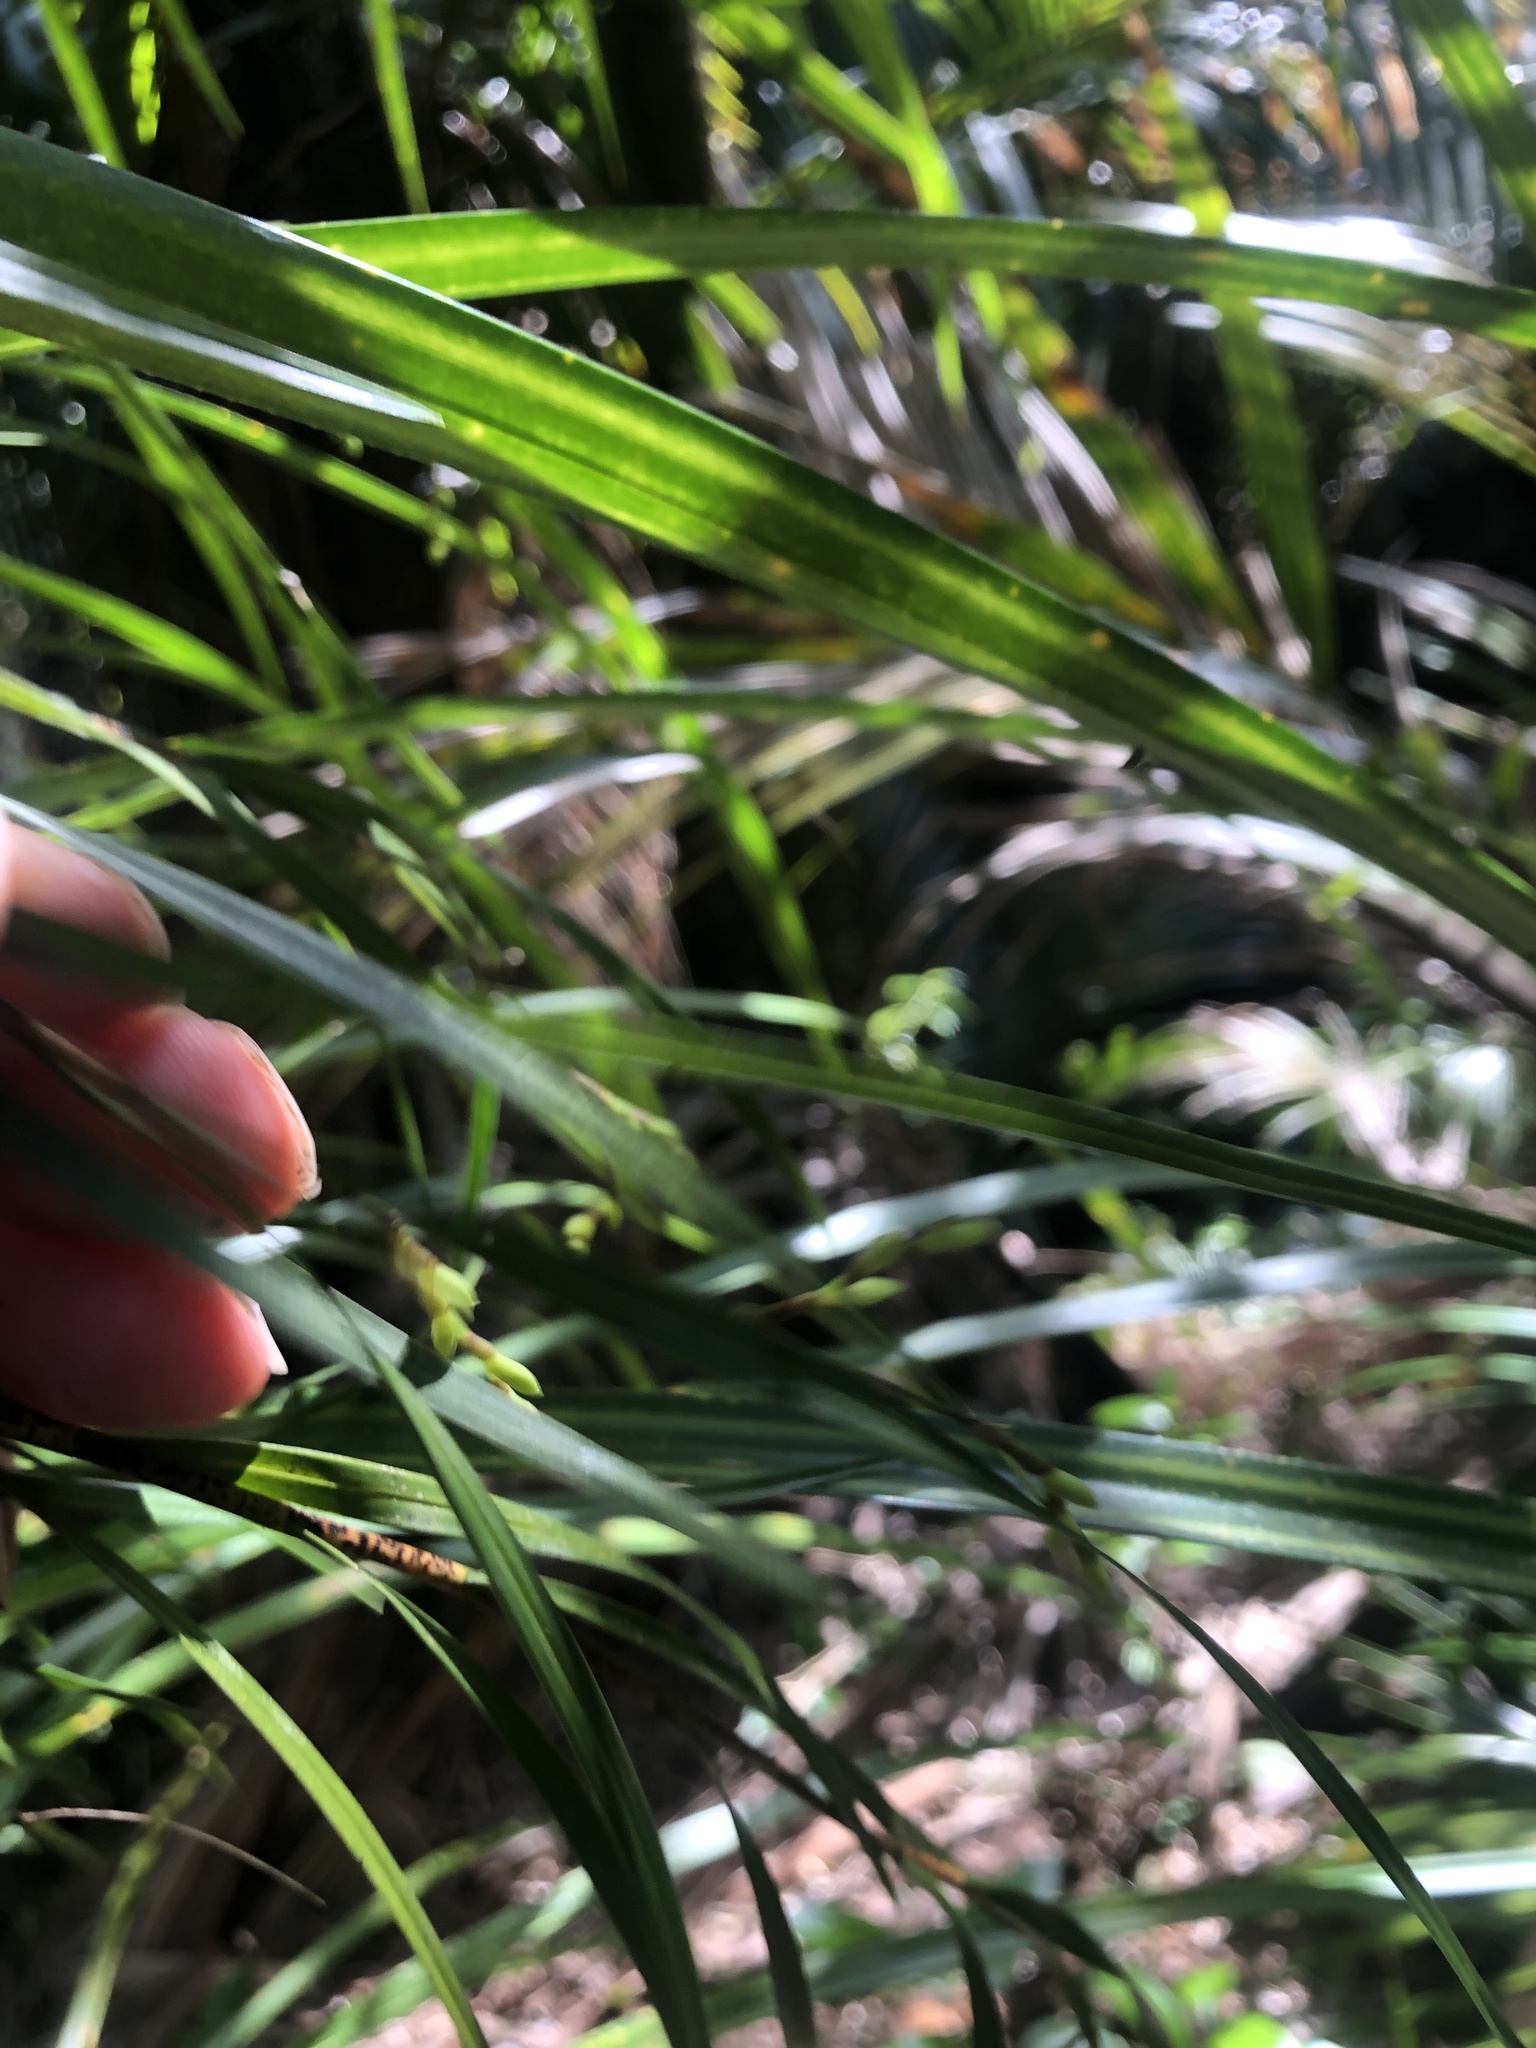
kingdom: Plantae
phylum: Tracheophyta
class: Liliopsida
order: Asparagales
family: Orchidaceae
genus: Earina
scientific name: Earina mucronata
